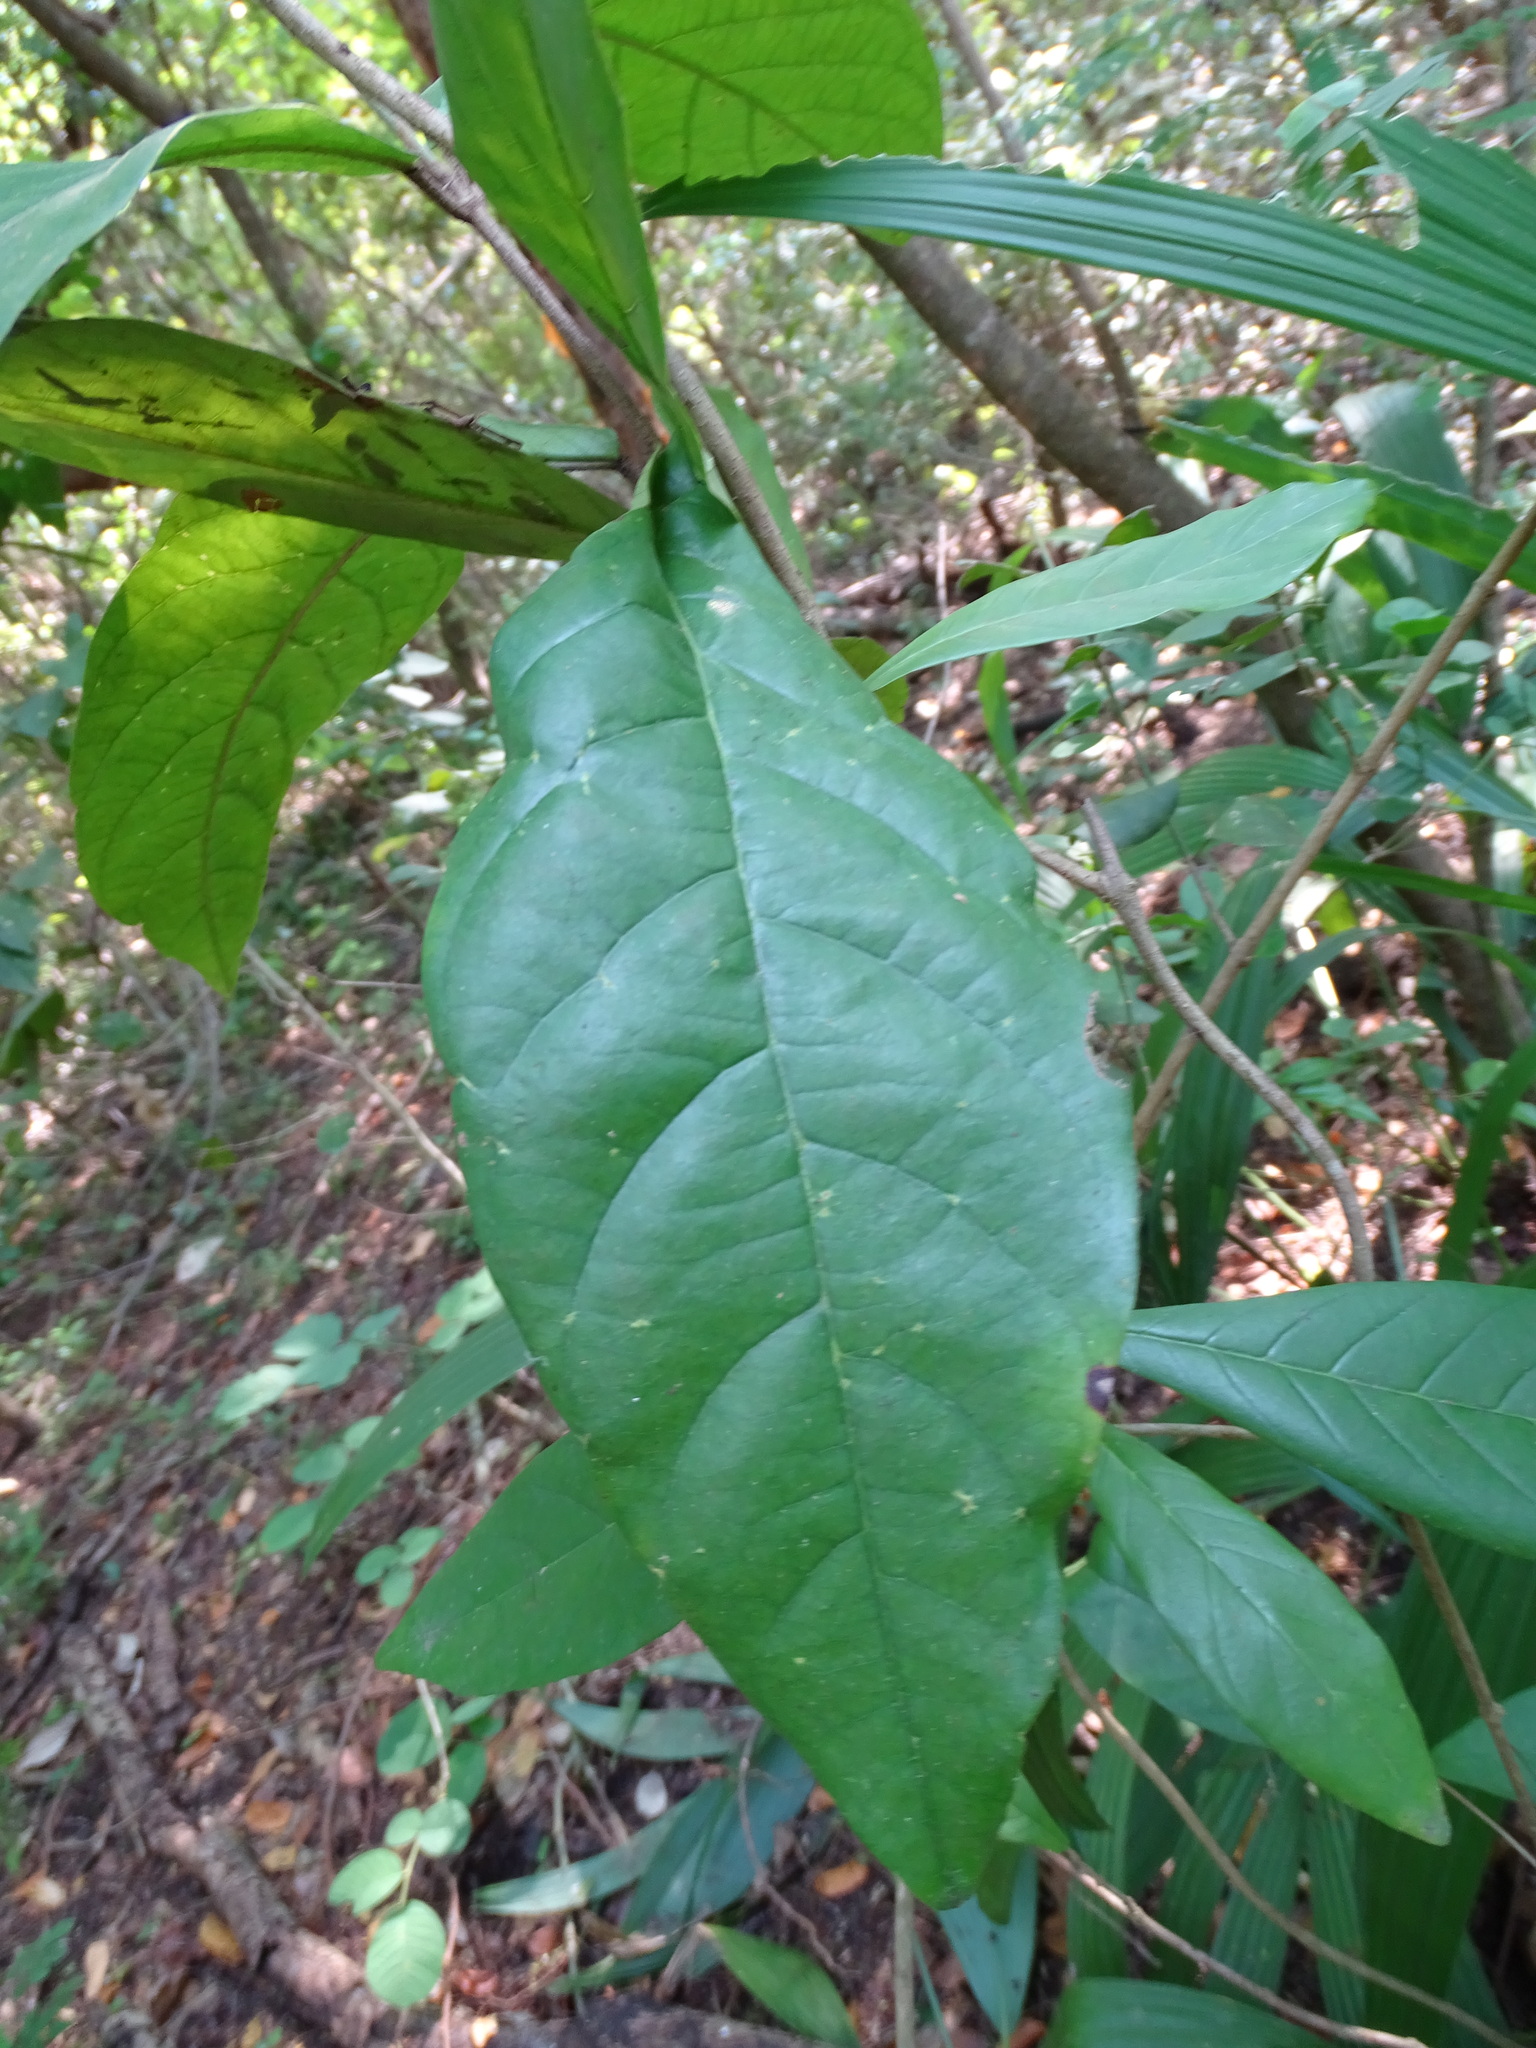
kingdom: Plantae
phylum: Tracheophyta
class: Magnoliopsida
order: Malpighiales
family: Malpighiaceae
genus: Hiraea
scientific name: Hiraea reclinata
